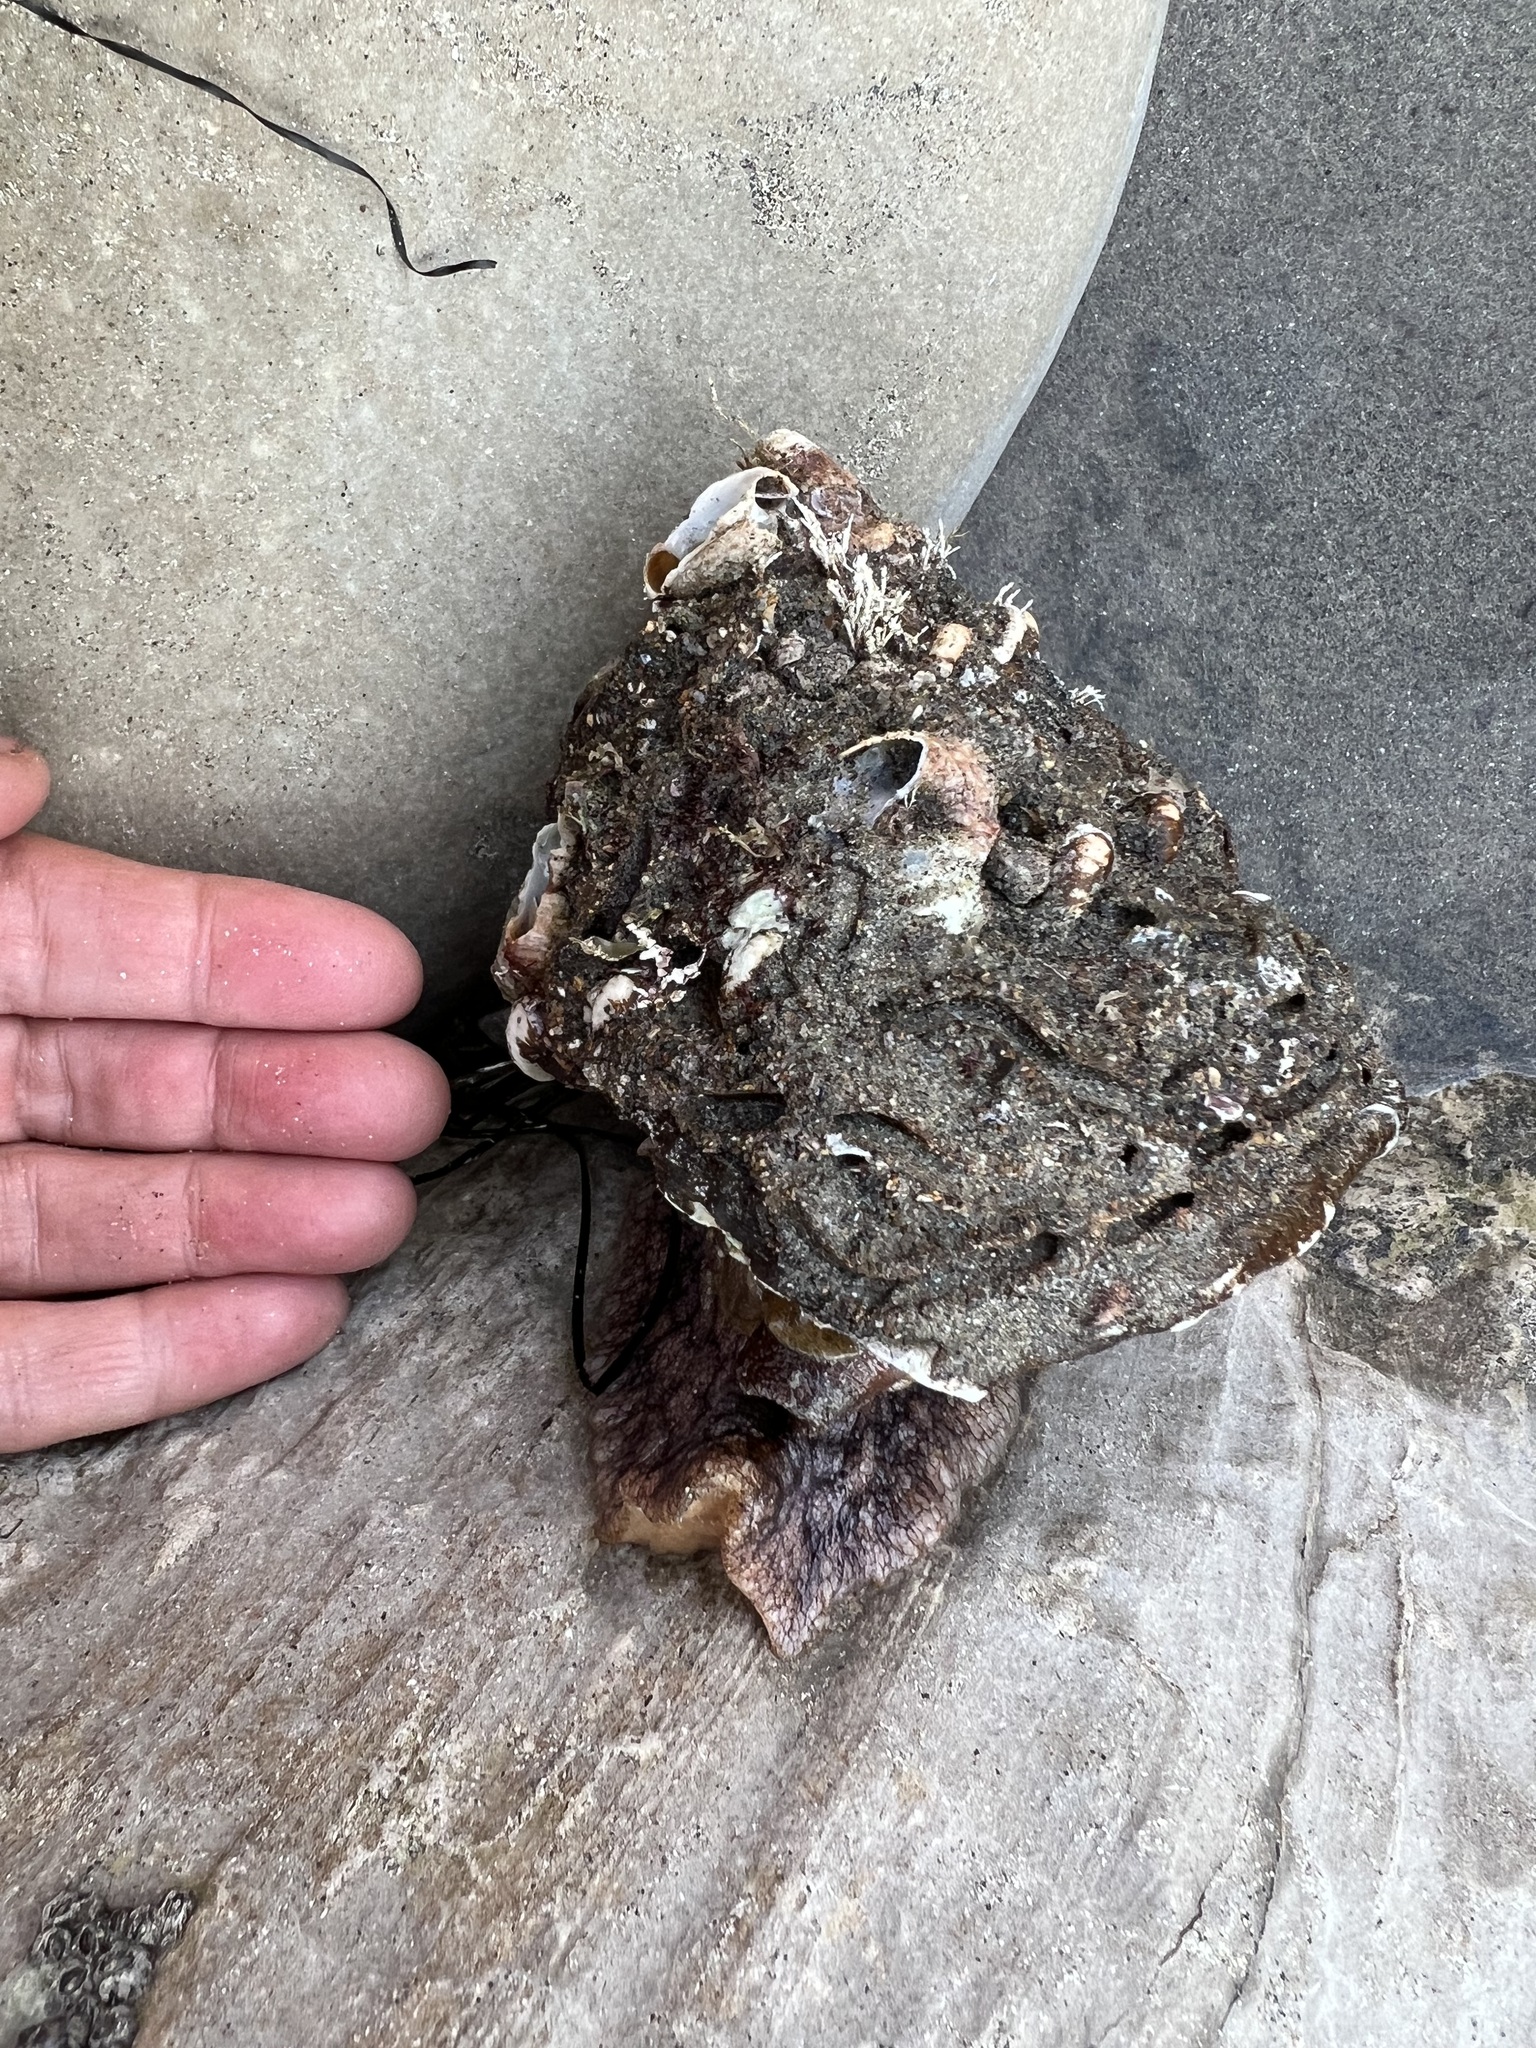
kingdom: Animalia
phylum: Mollusca
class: Gastropoda
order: Trochida
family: Turbinidae
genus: Megastraea
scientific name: Megastraea undosa
